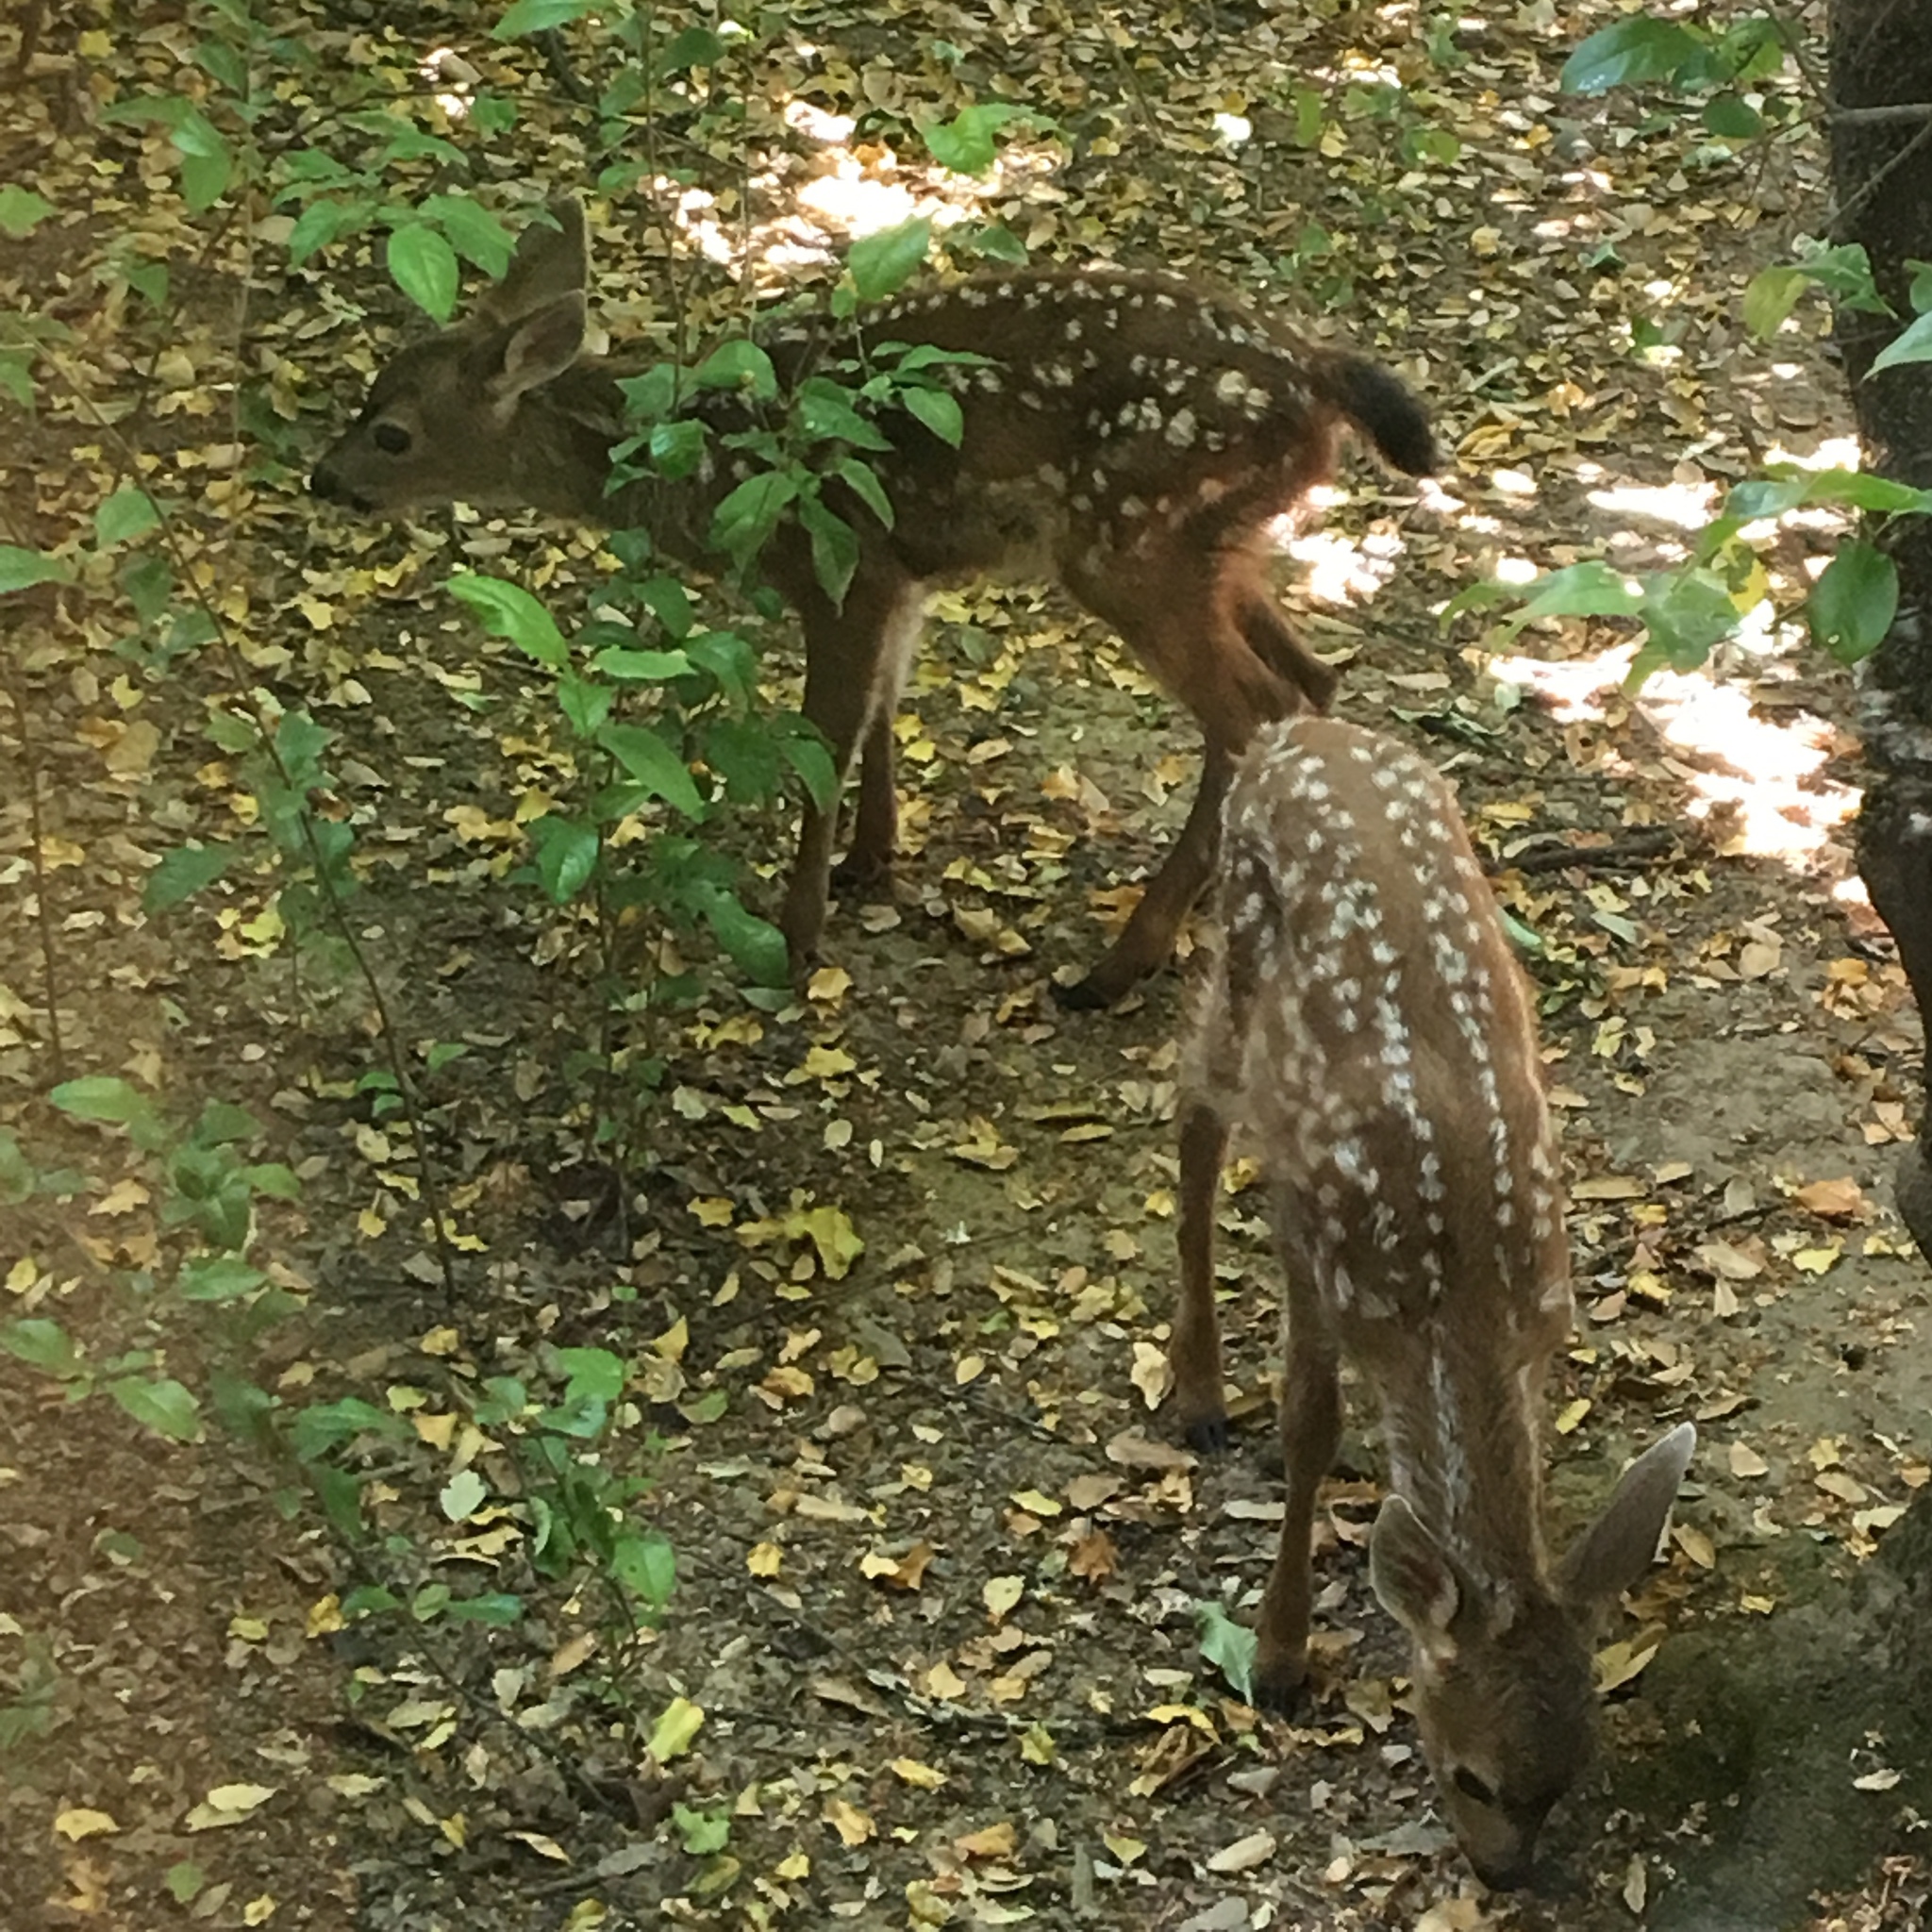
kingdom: Animalia
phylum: Chordata
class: Mammalia
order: Artiodactyla
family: Cervidae
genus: Odocoileus
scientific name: Odocoileus hemionus
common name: Mule deer
